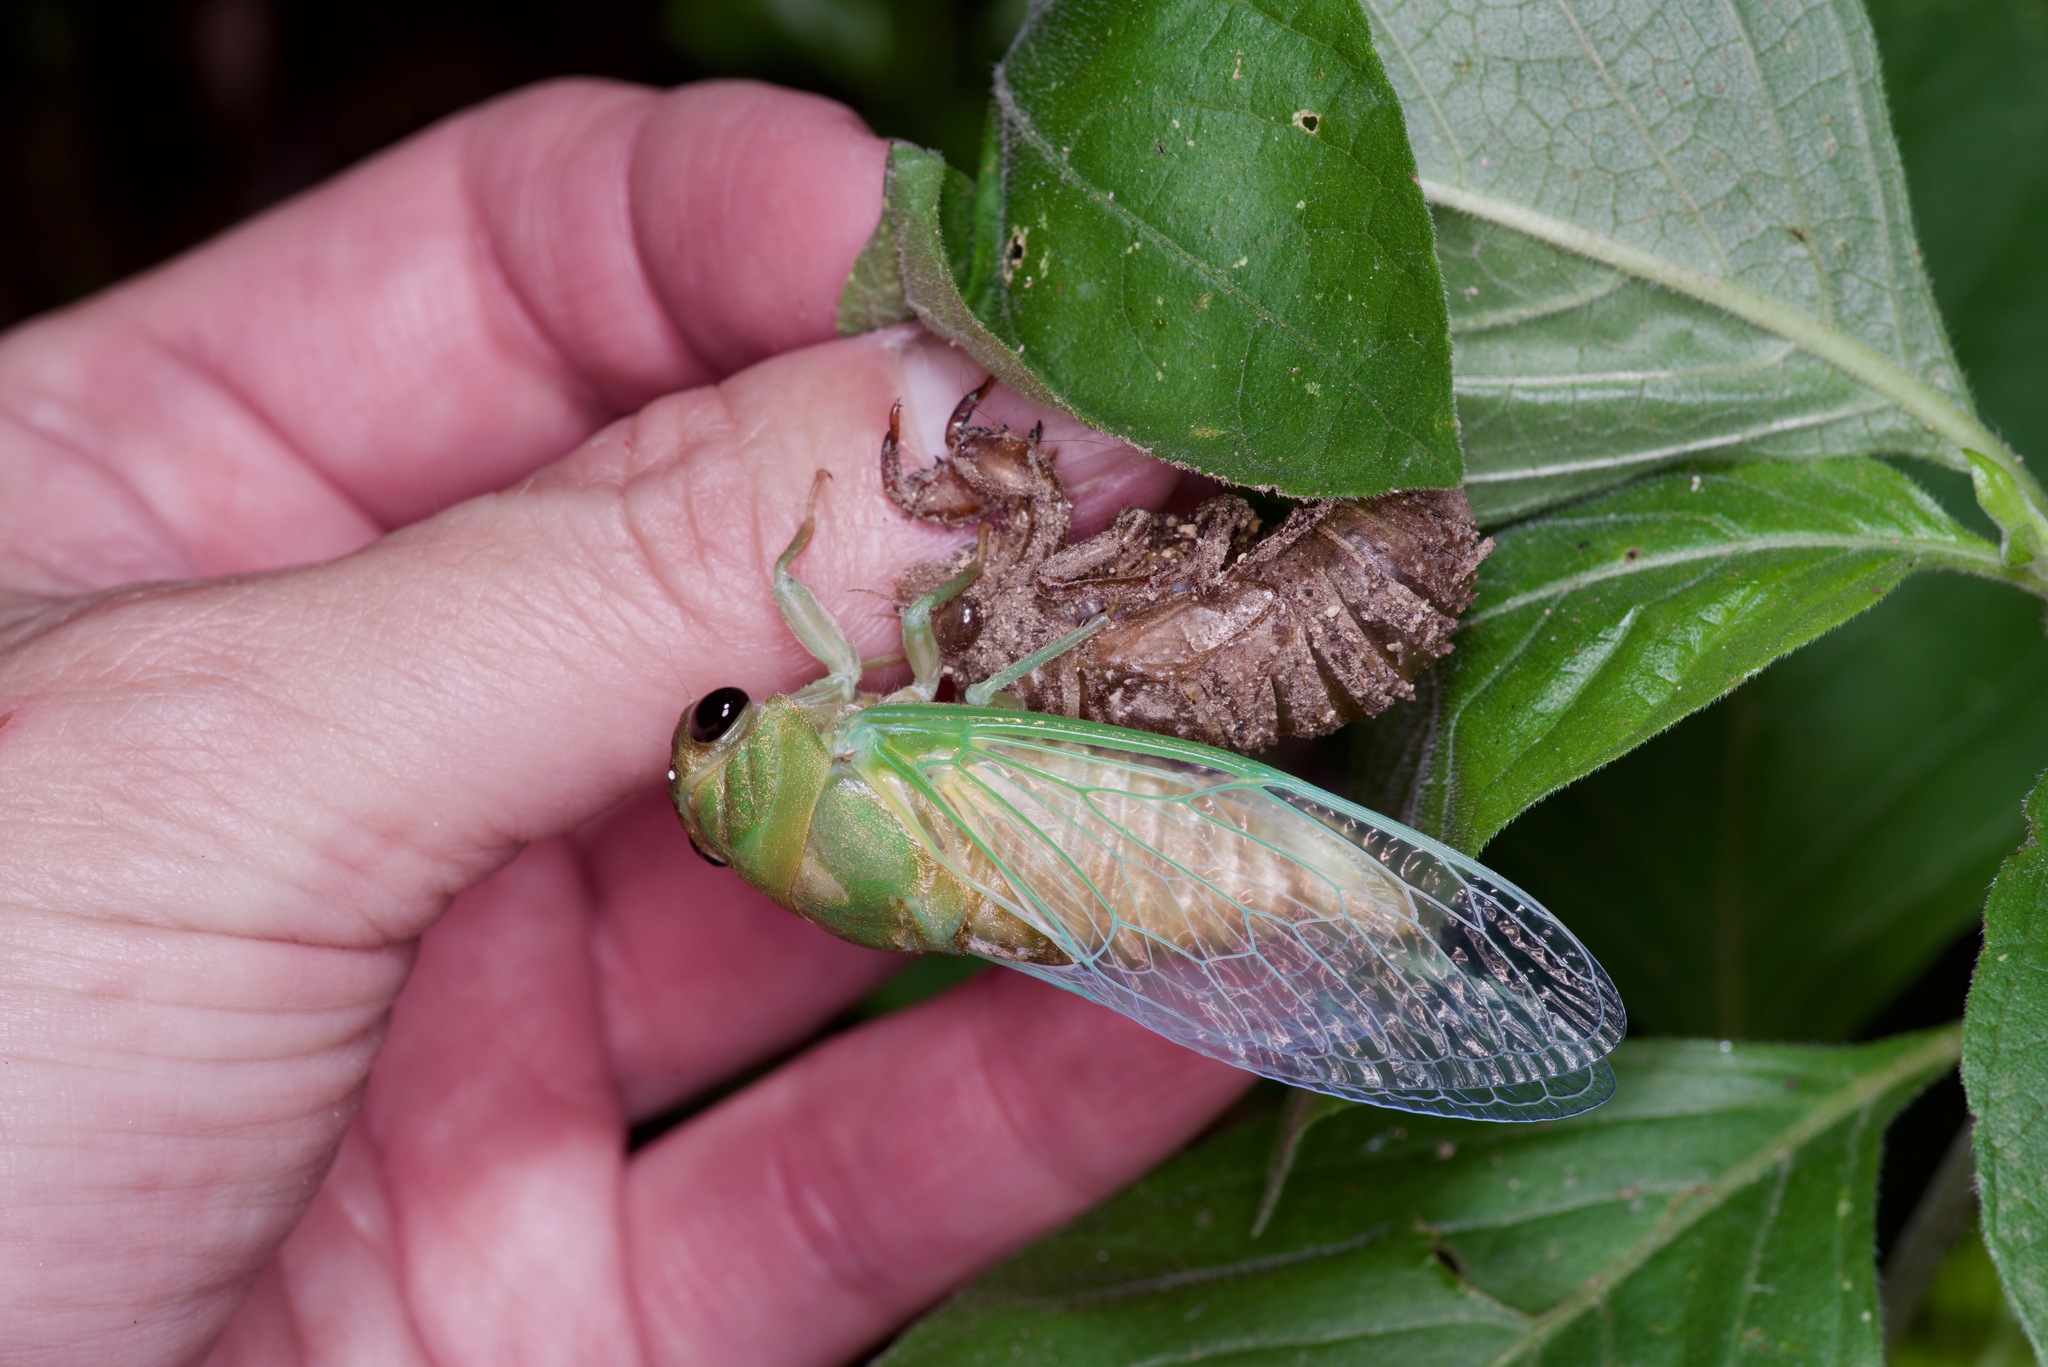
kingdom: Animalia
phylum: Arthropoda
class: Insecta
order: Hemiptera
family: Cicadidae
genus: Neotibicen
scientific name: Neotibicen superbus
